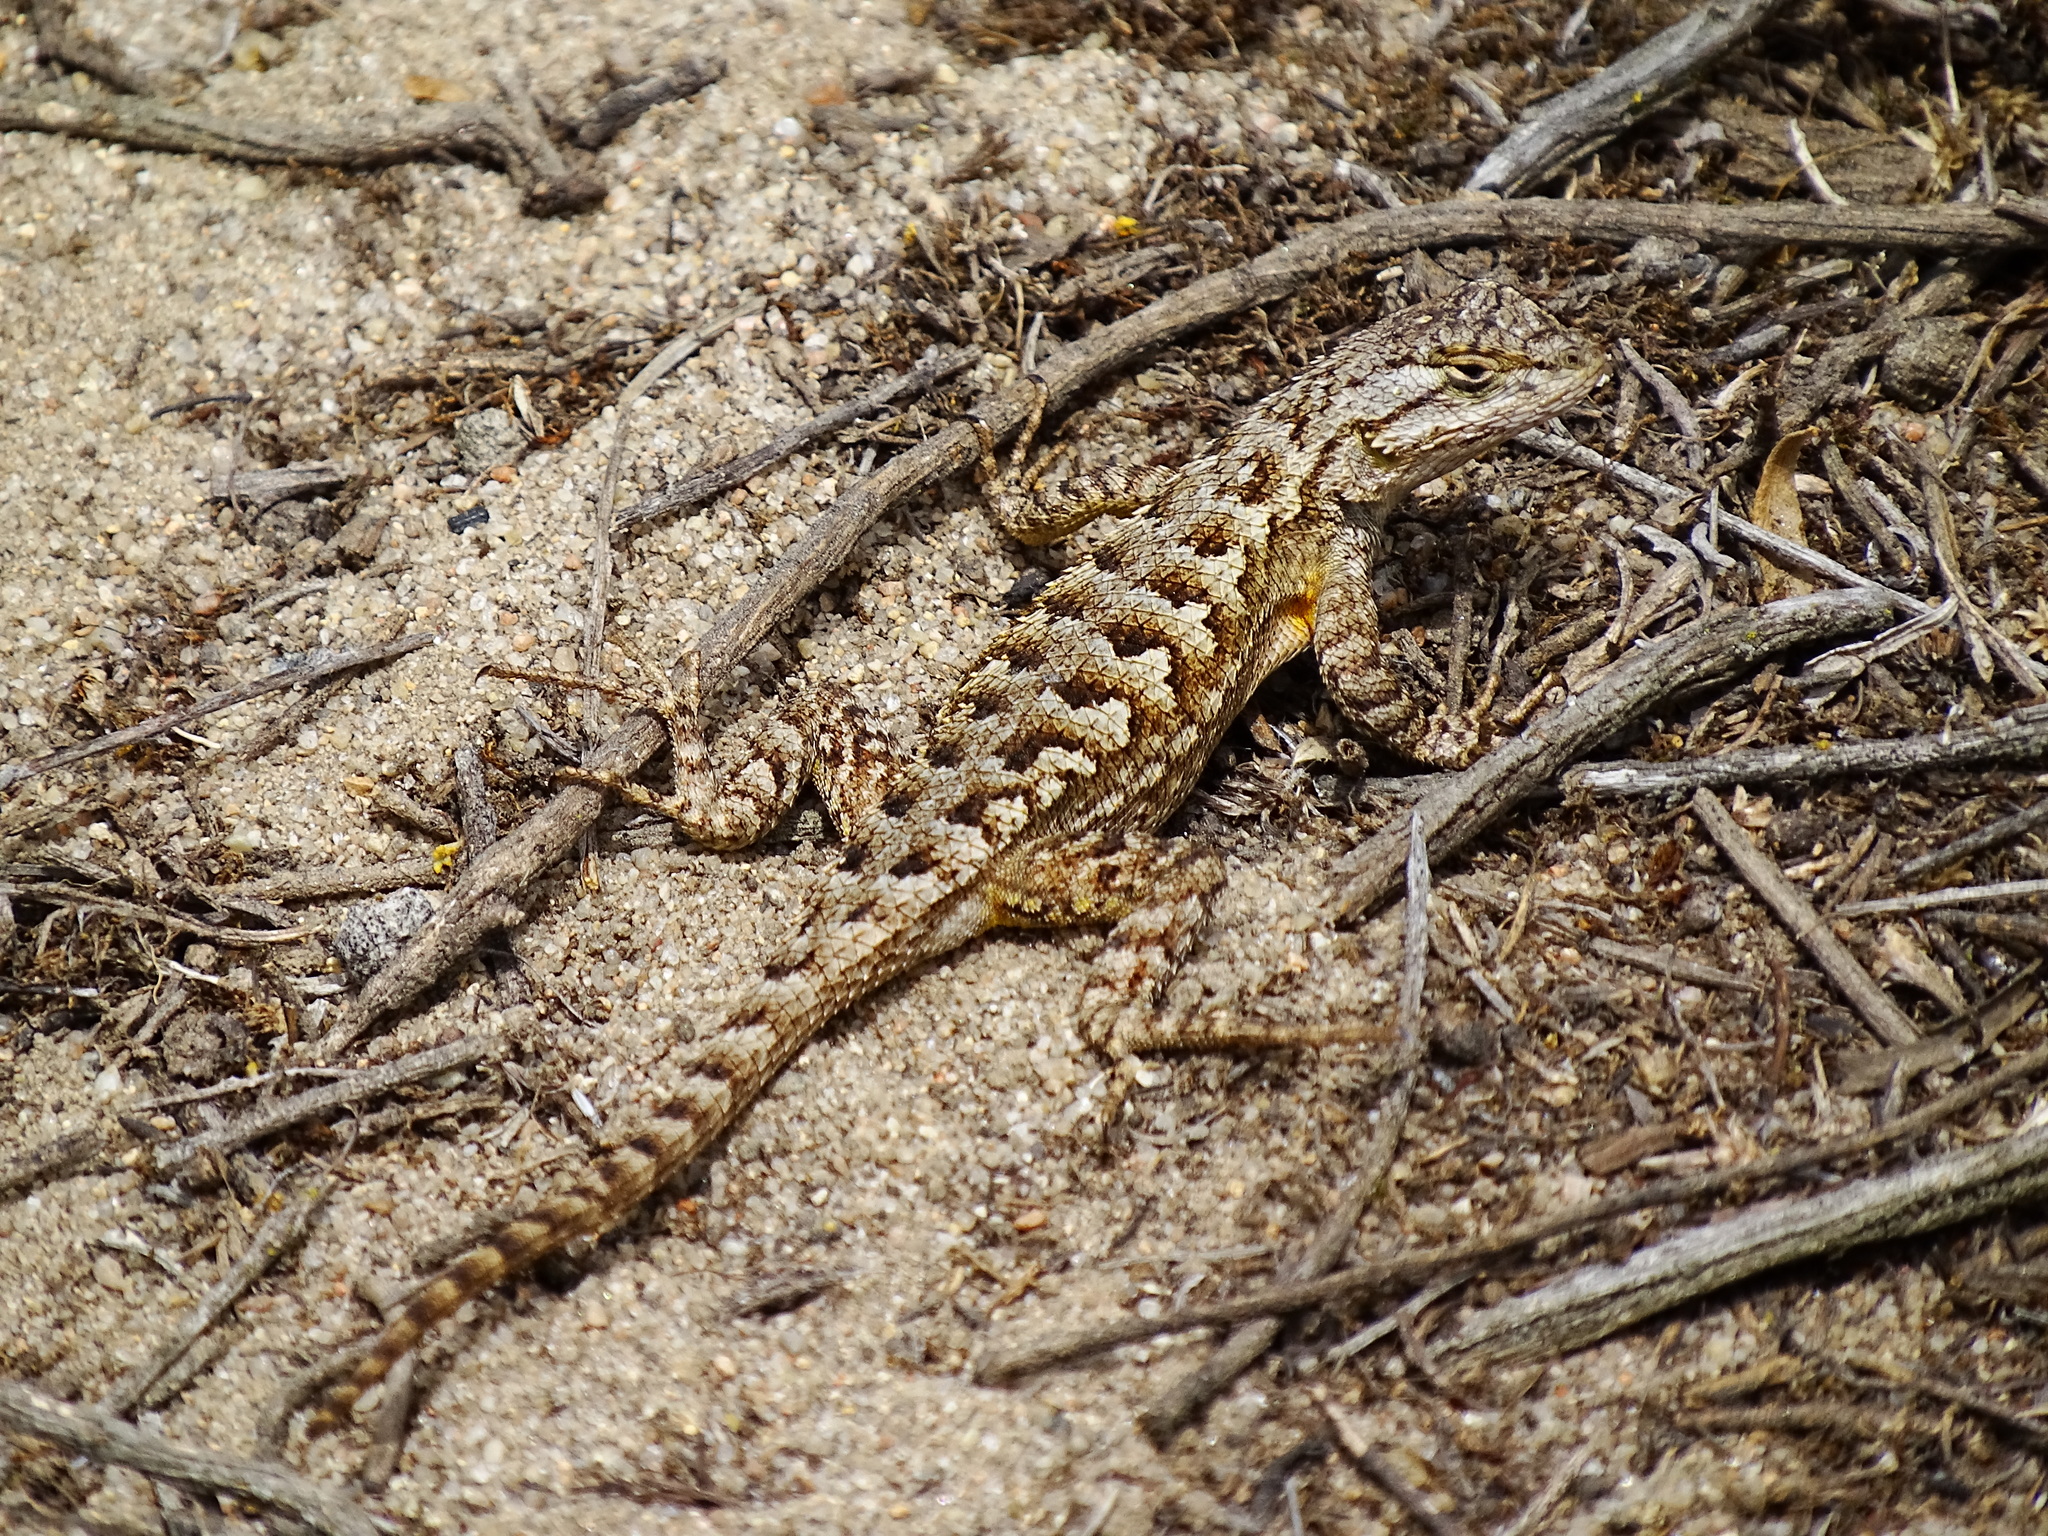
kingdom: Animalia
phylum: Chordata
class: Squamata
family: Phrynosomatidae
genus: Sceloporus
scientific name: Sceloporus occidentalis
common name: Western fence lizard
